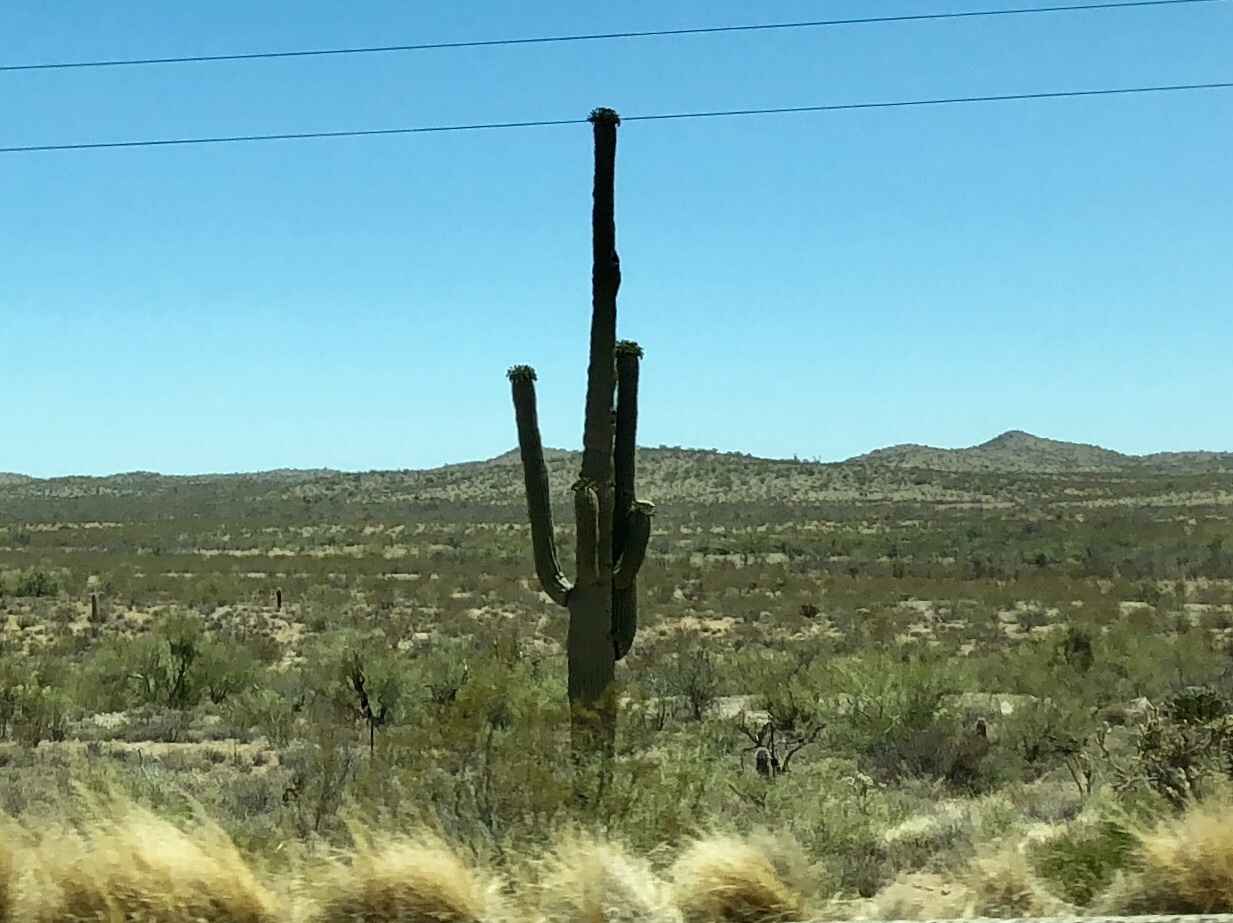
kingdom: Plantae
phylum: Tracheophyta
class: Magnoliopsida
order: Caryophyllales
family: Cactaceae
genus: Carnegiea
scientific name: Carnegiea gigantea
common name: Saguaro
